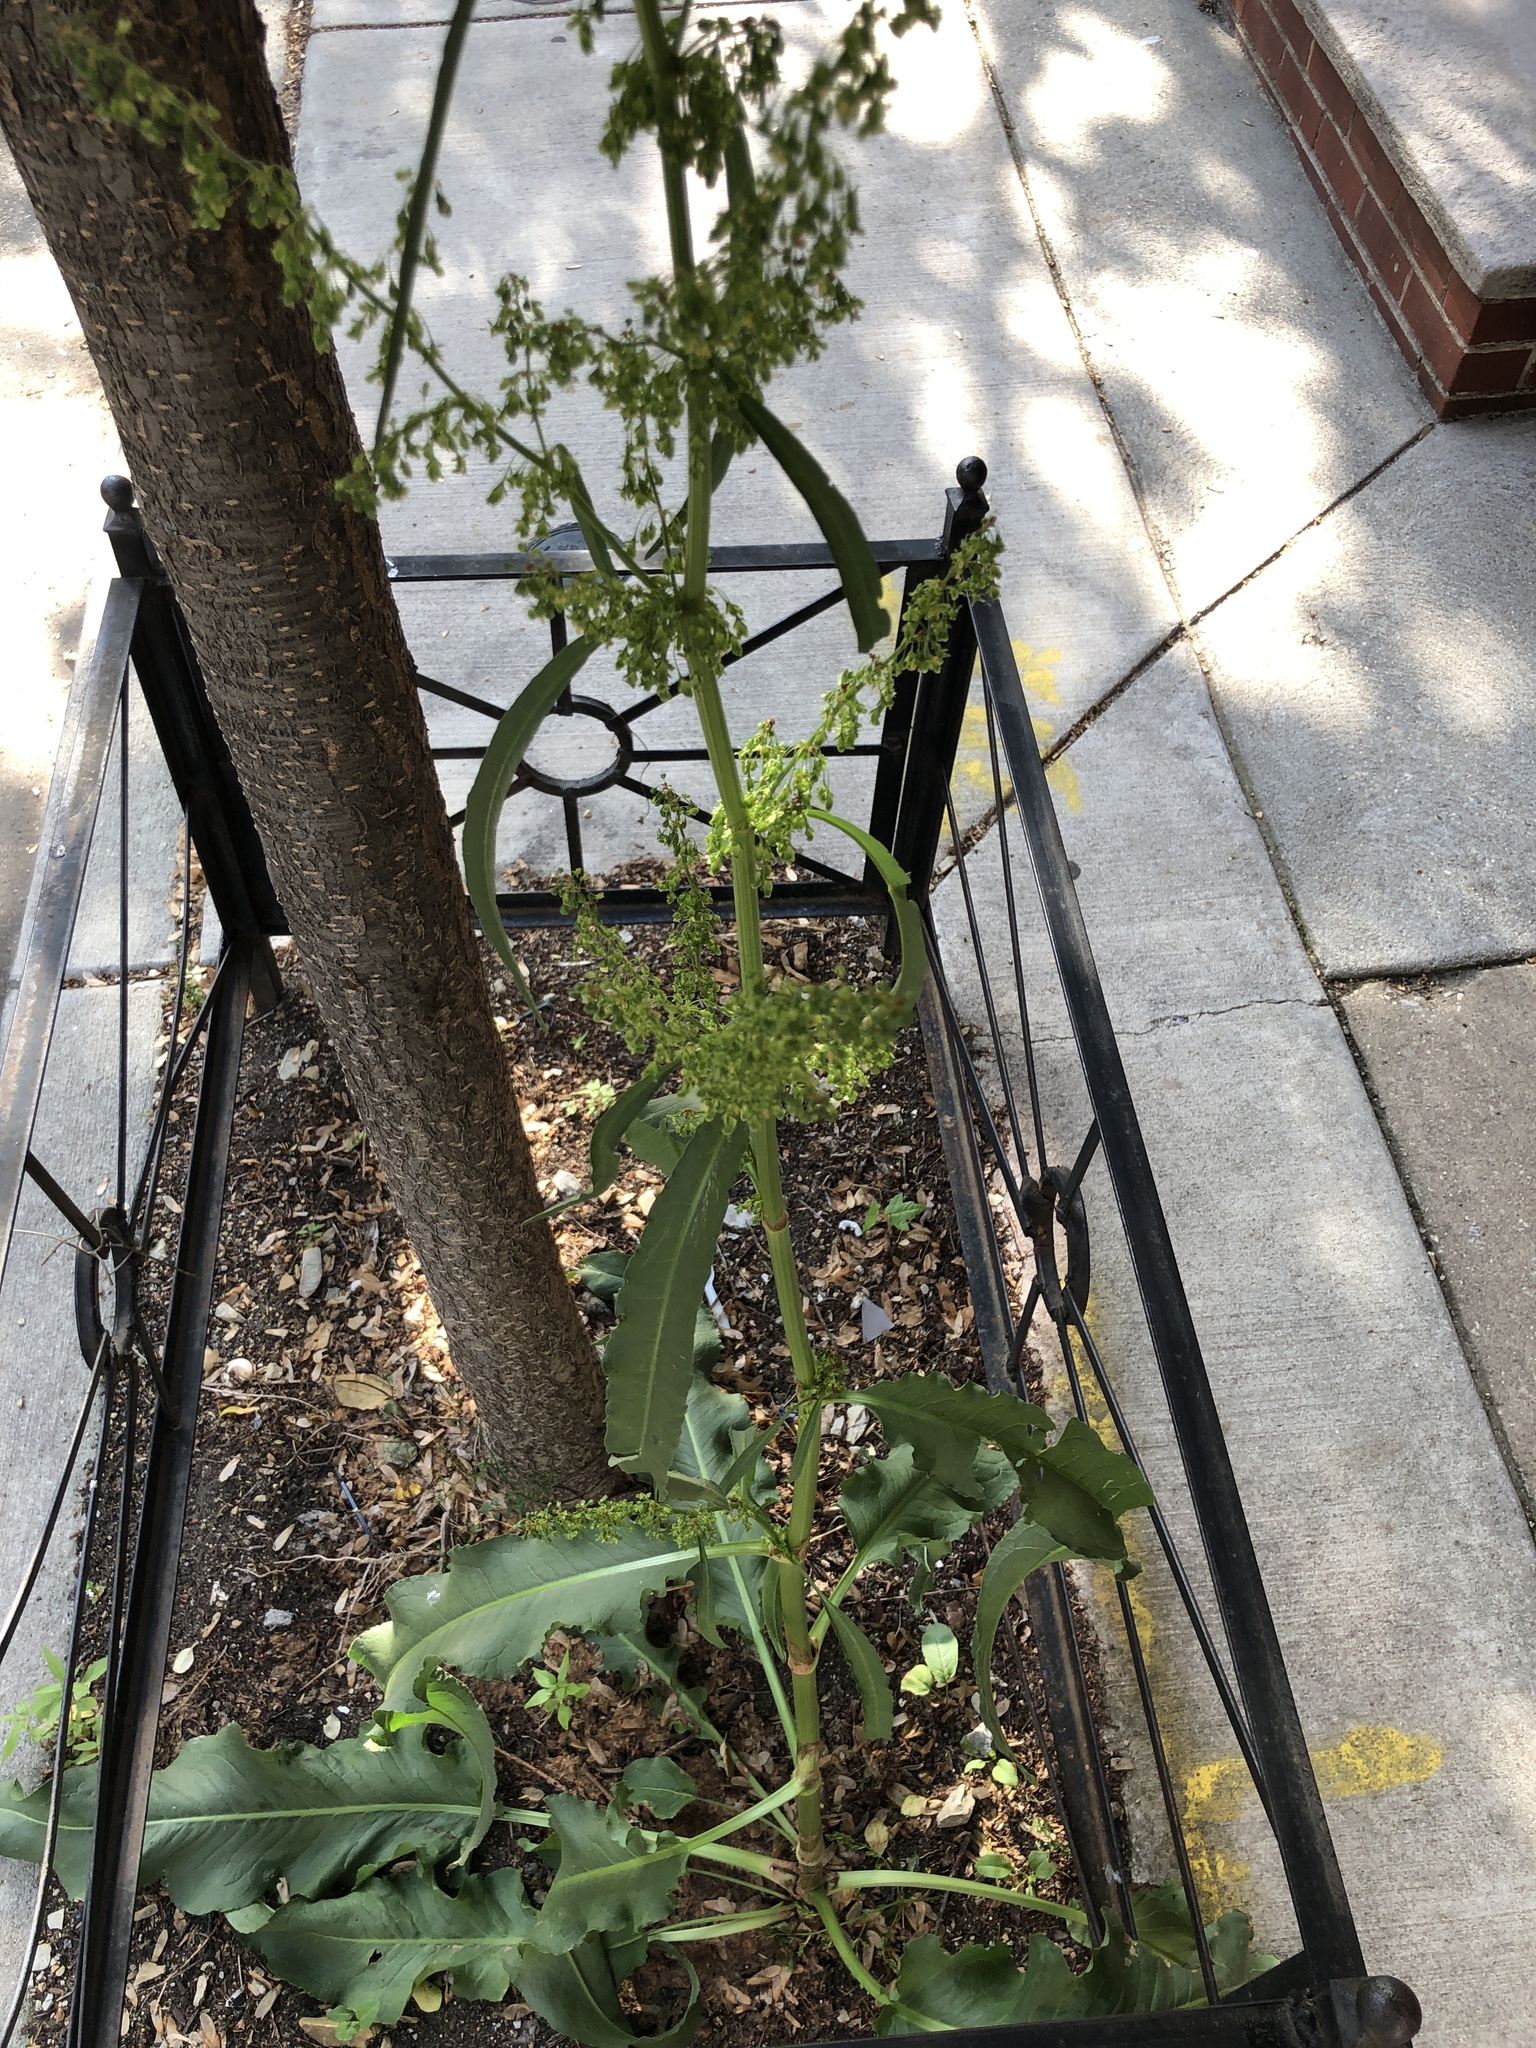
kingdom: Plantae
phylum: Tracheophyta
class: Magnoliopsida
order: Caryophyllales
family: Polygonaceae
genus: Rumex
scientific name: Rumex crispus
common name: Curled dock
